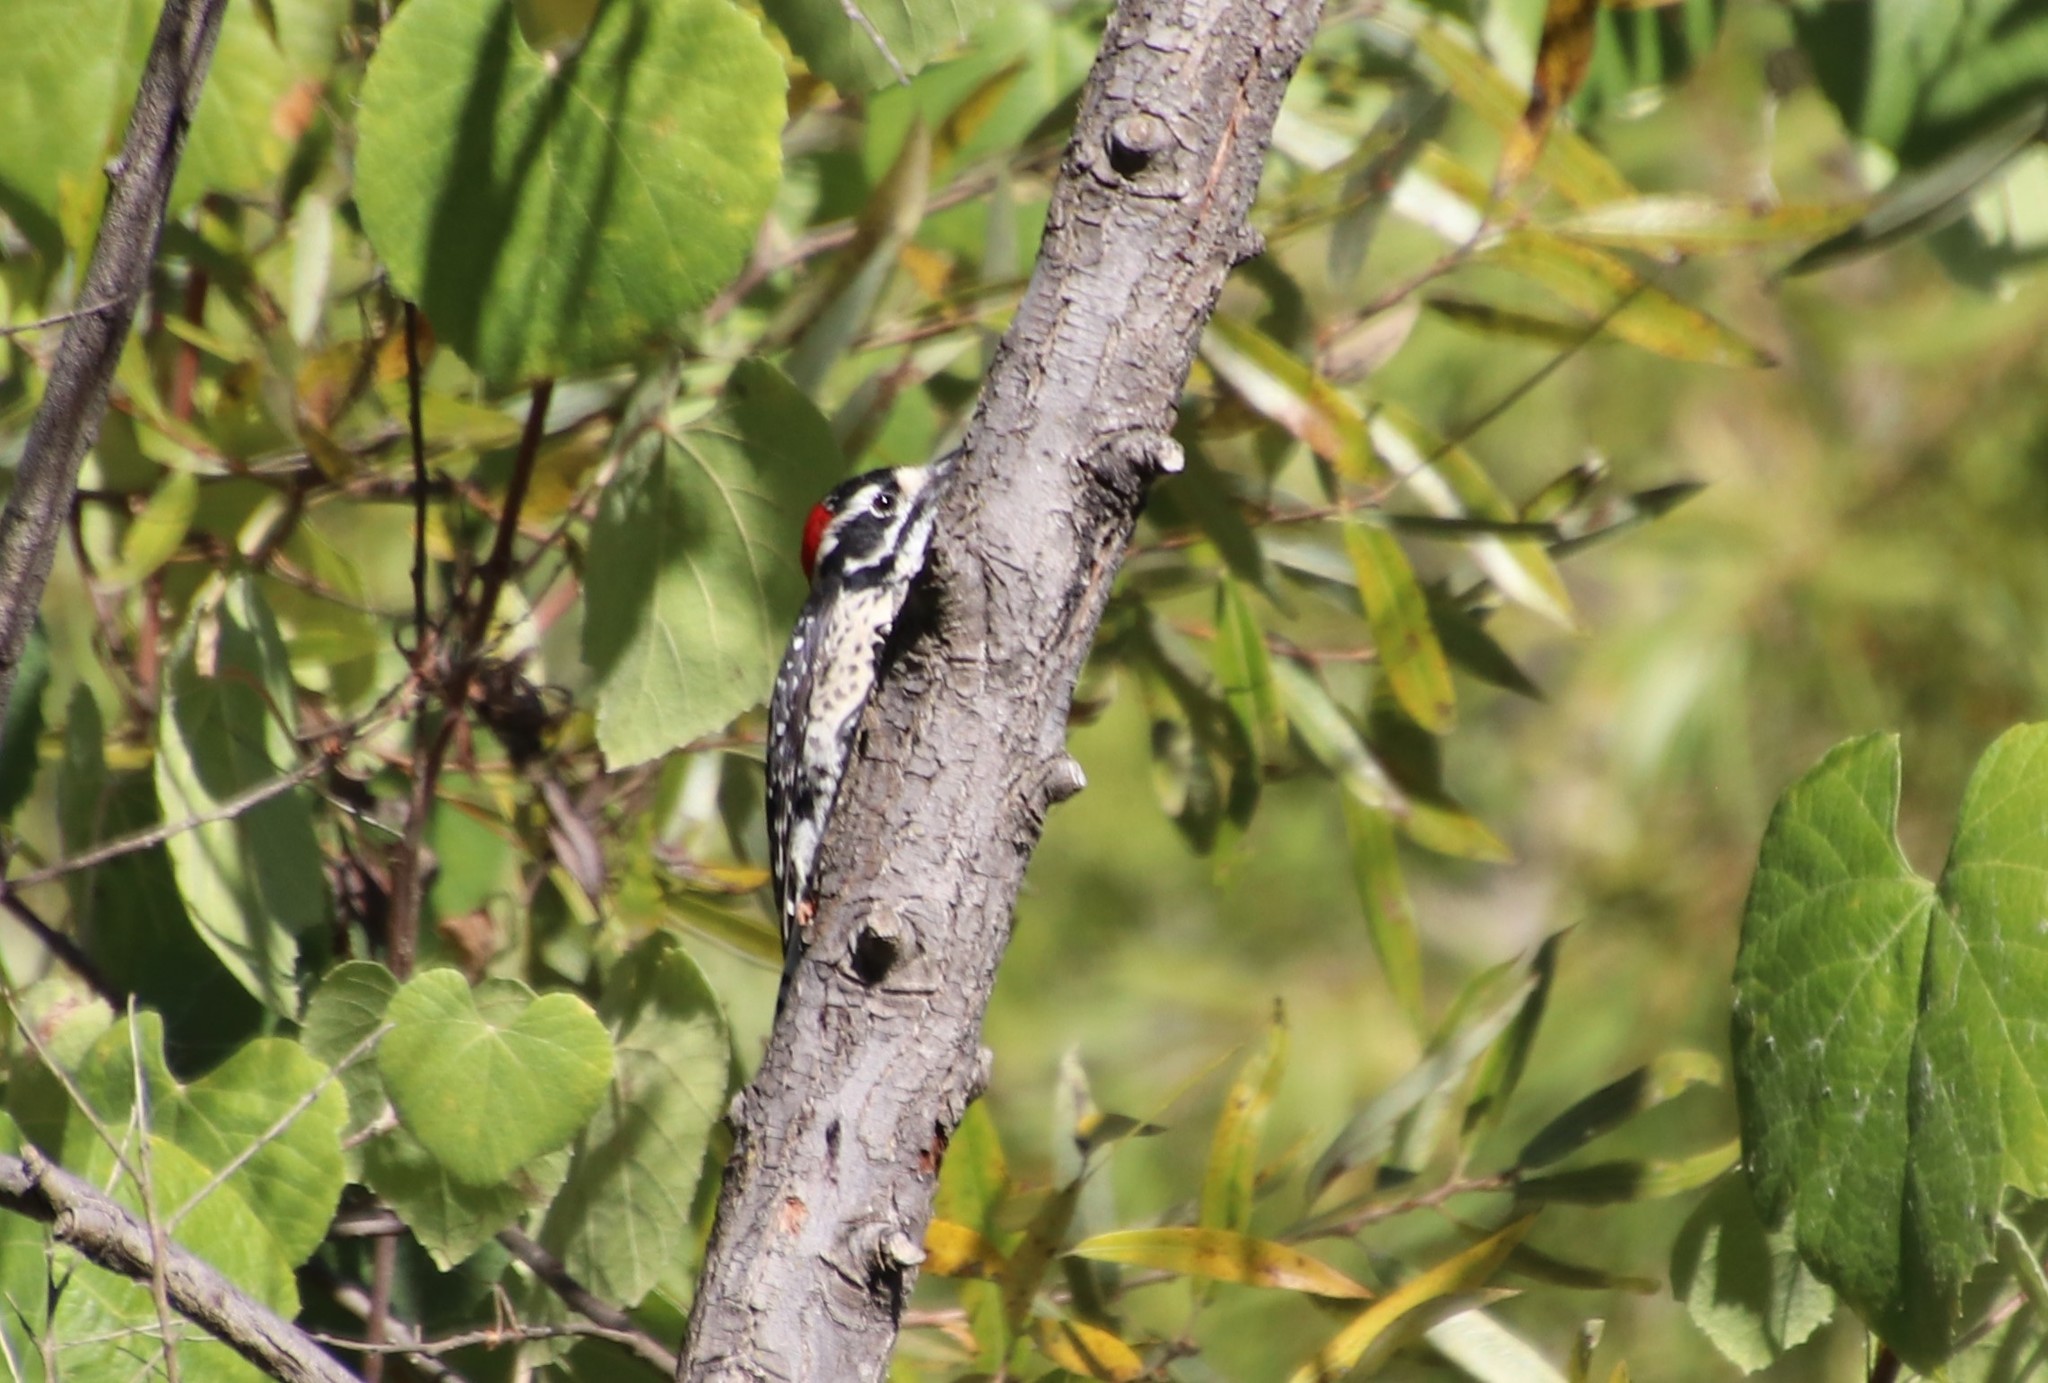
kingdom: Animalia
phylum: Chordata
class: Aves
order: Piciformes
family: Picidae
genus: Dryobates
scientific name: Dryobates nuttallii
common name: Nuttall's woodpecker
